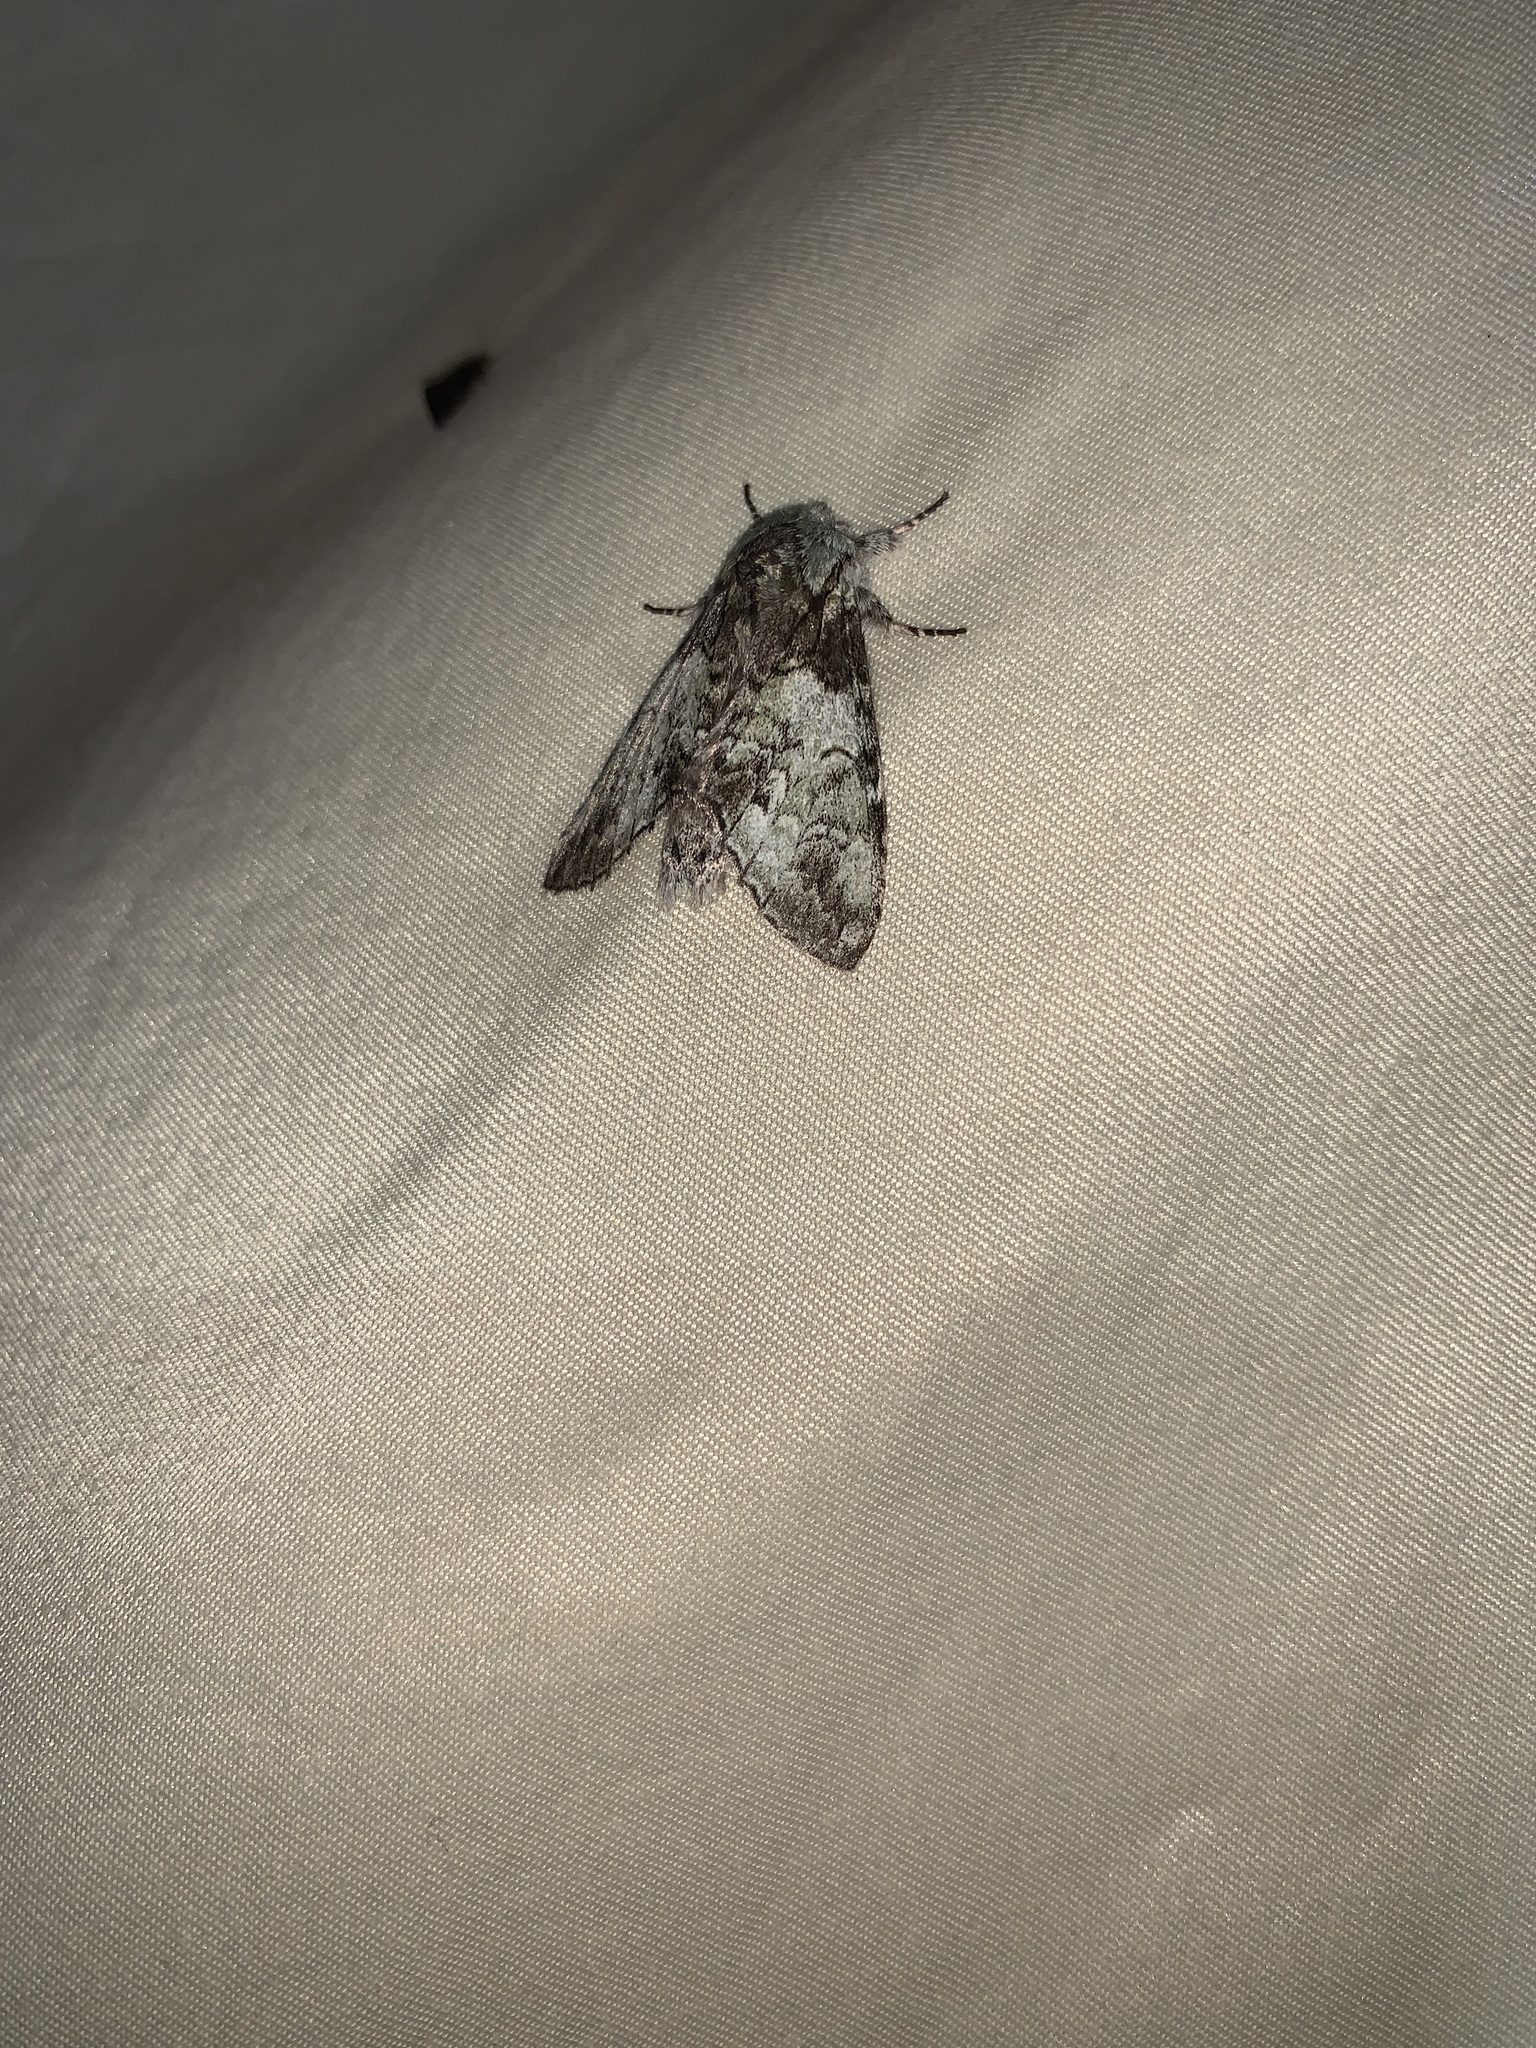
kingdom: Animalia
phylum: Arthropoda
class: Insecta
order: Lepidoptera
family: Notodontidae
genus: Macrurocampa
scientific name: Macrurocampa marthesia
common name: Mottled prominent
